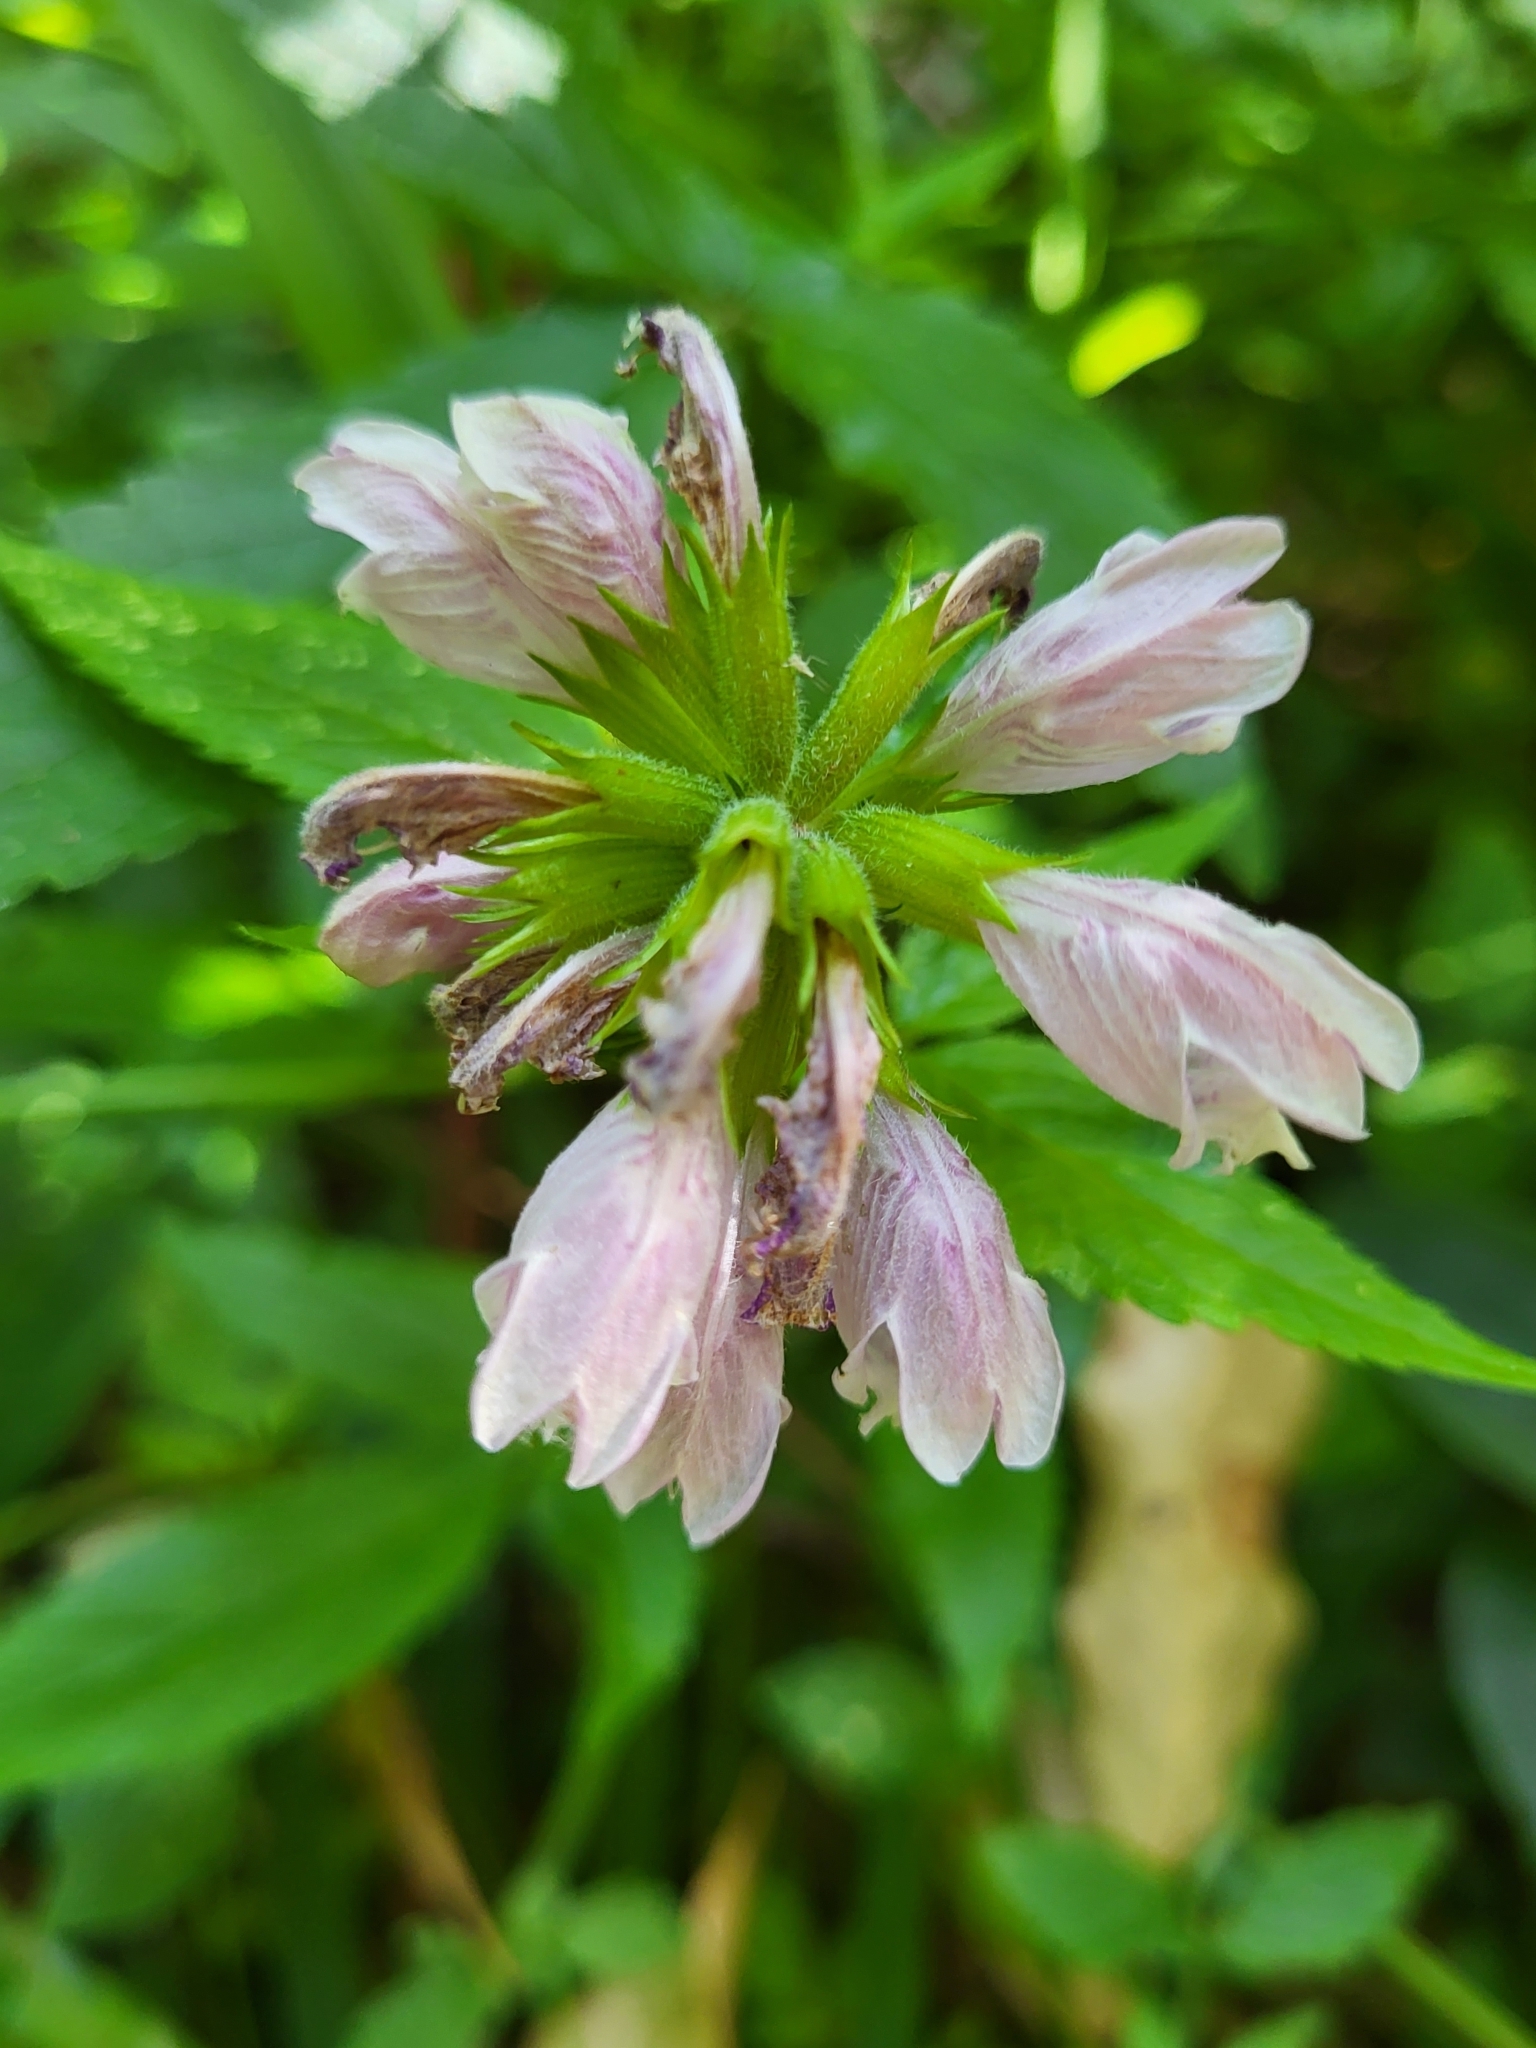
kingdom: Plantae
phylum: Tracheophyta
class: Magnoliopsida
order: Lamiales
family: Lamiaceae
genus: Cedronella
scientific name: Cedronella canariensis
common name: Canary islands balm
